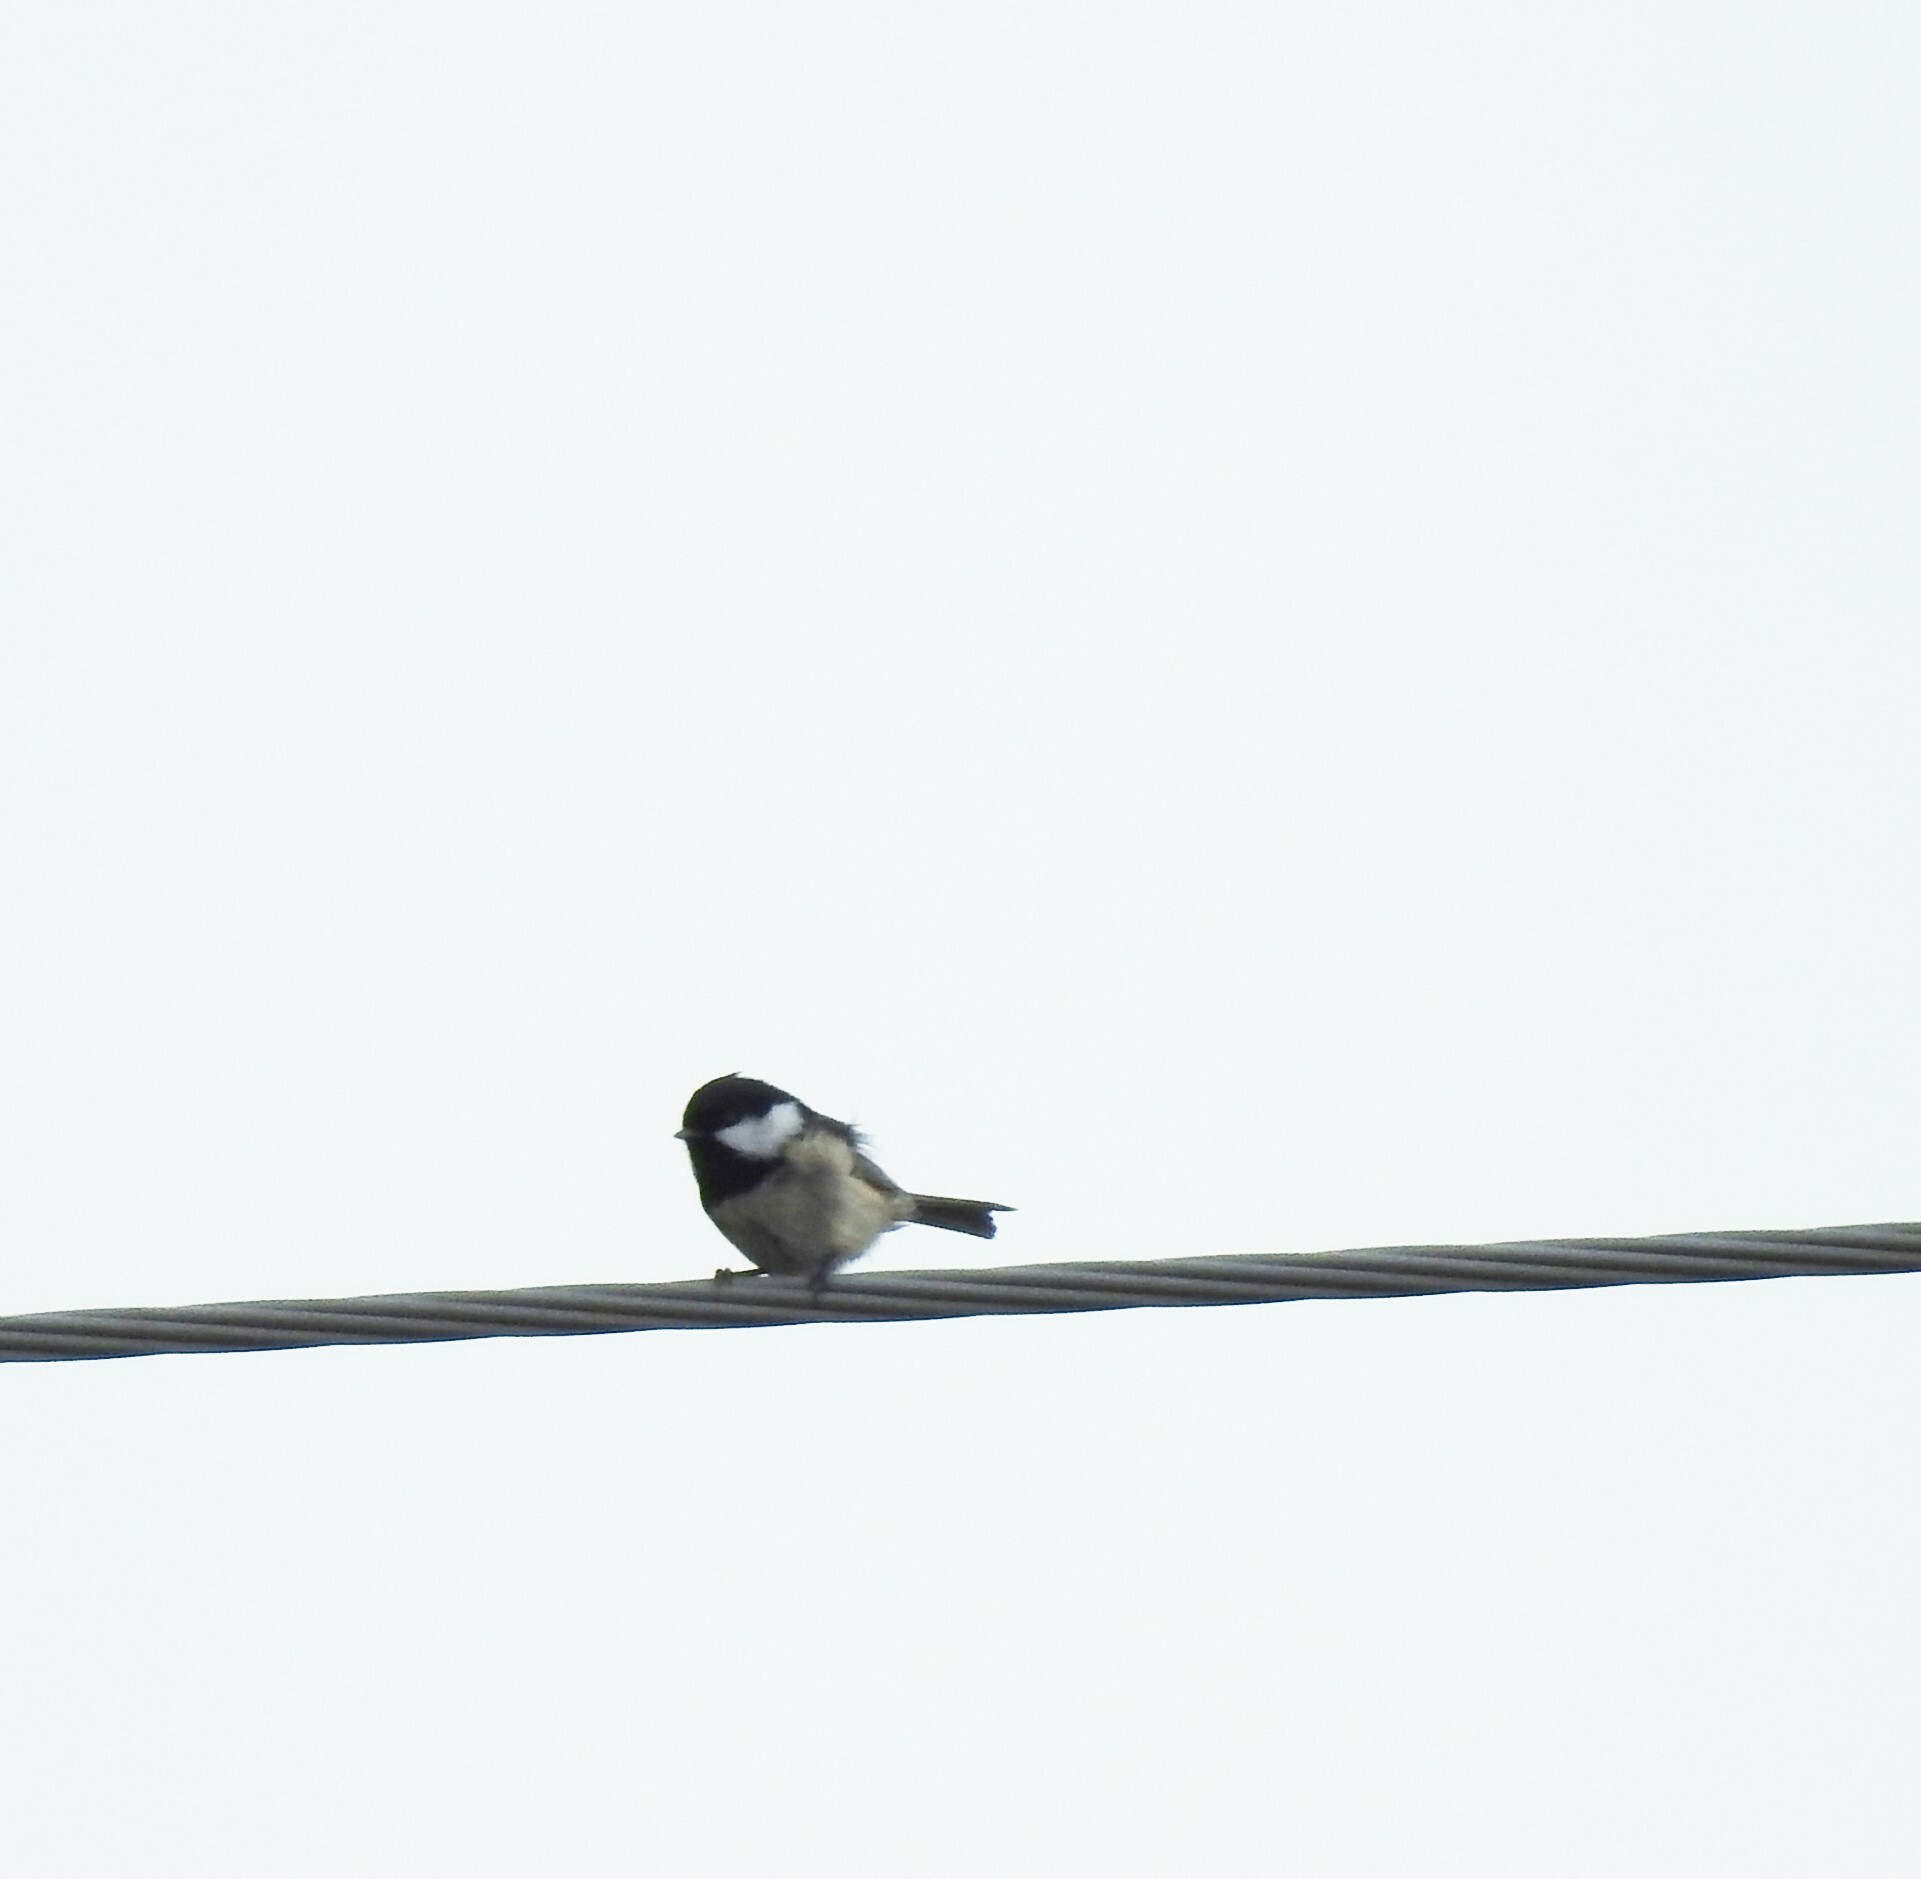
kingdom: Animalia
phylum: Chordata
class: Aves
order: Passeriformes
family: Paridae
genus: Periparus
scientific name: Periparus ater
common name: Coal tit
